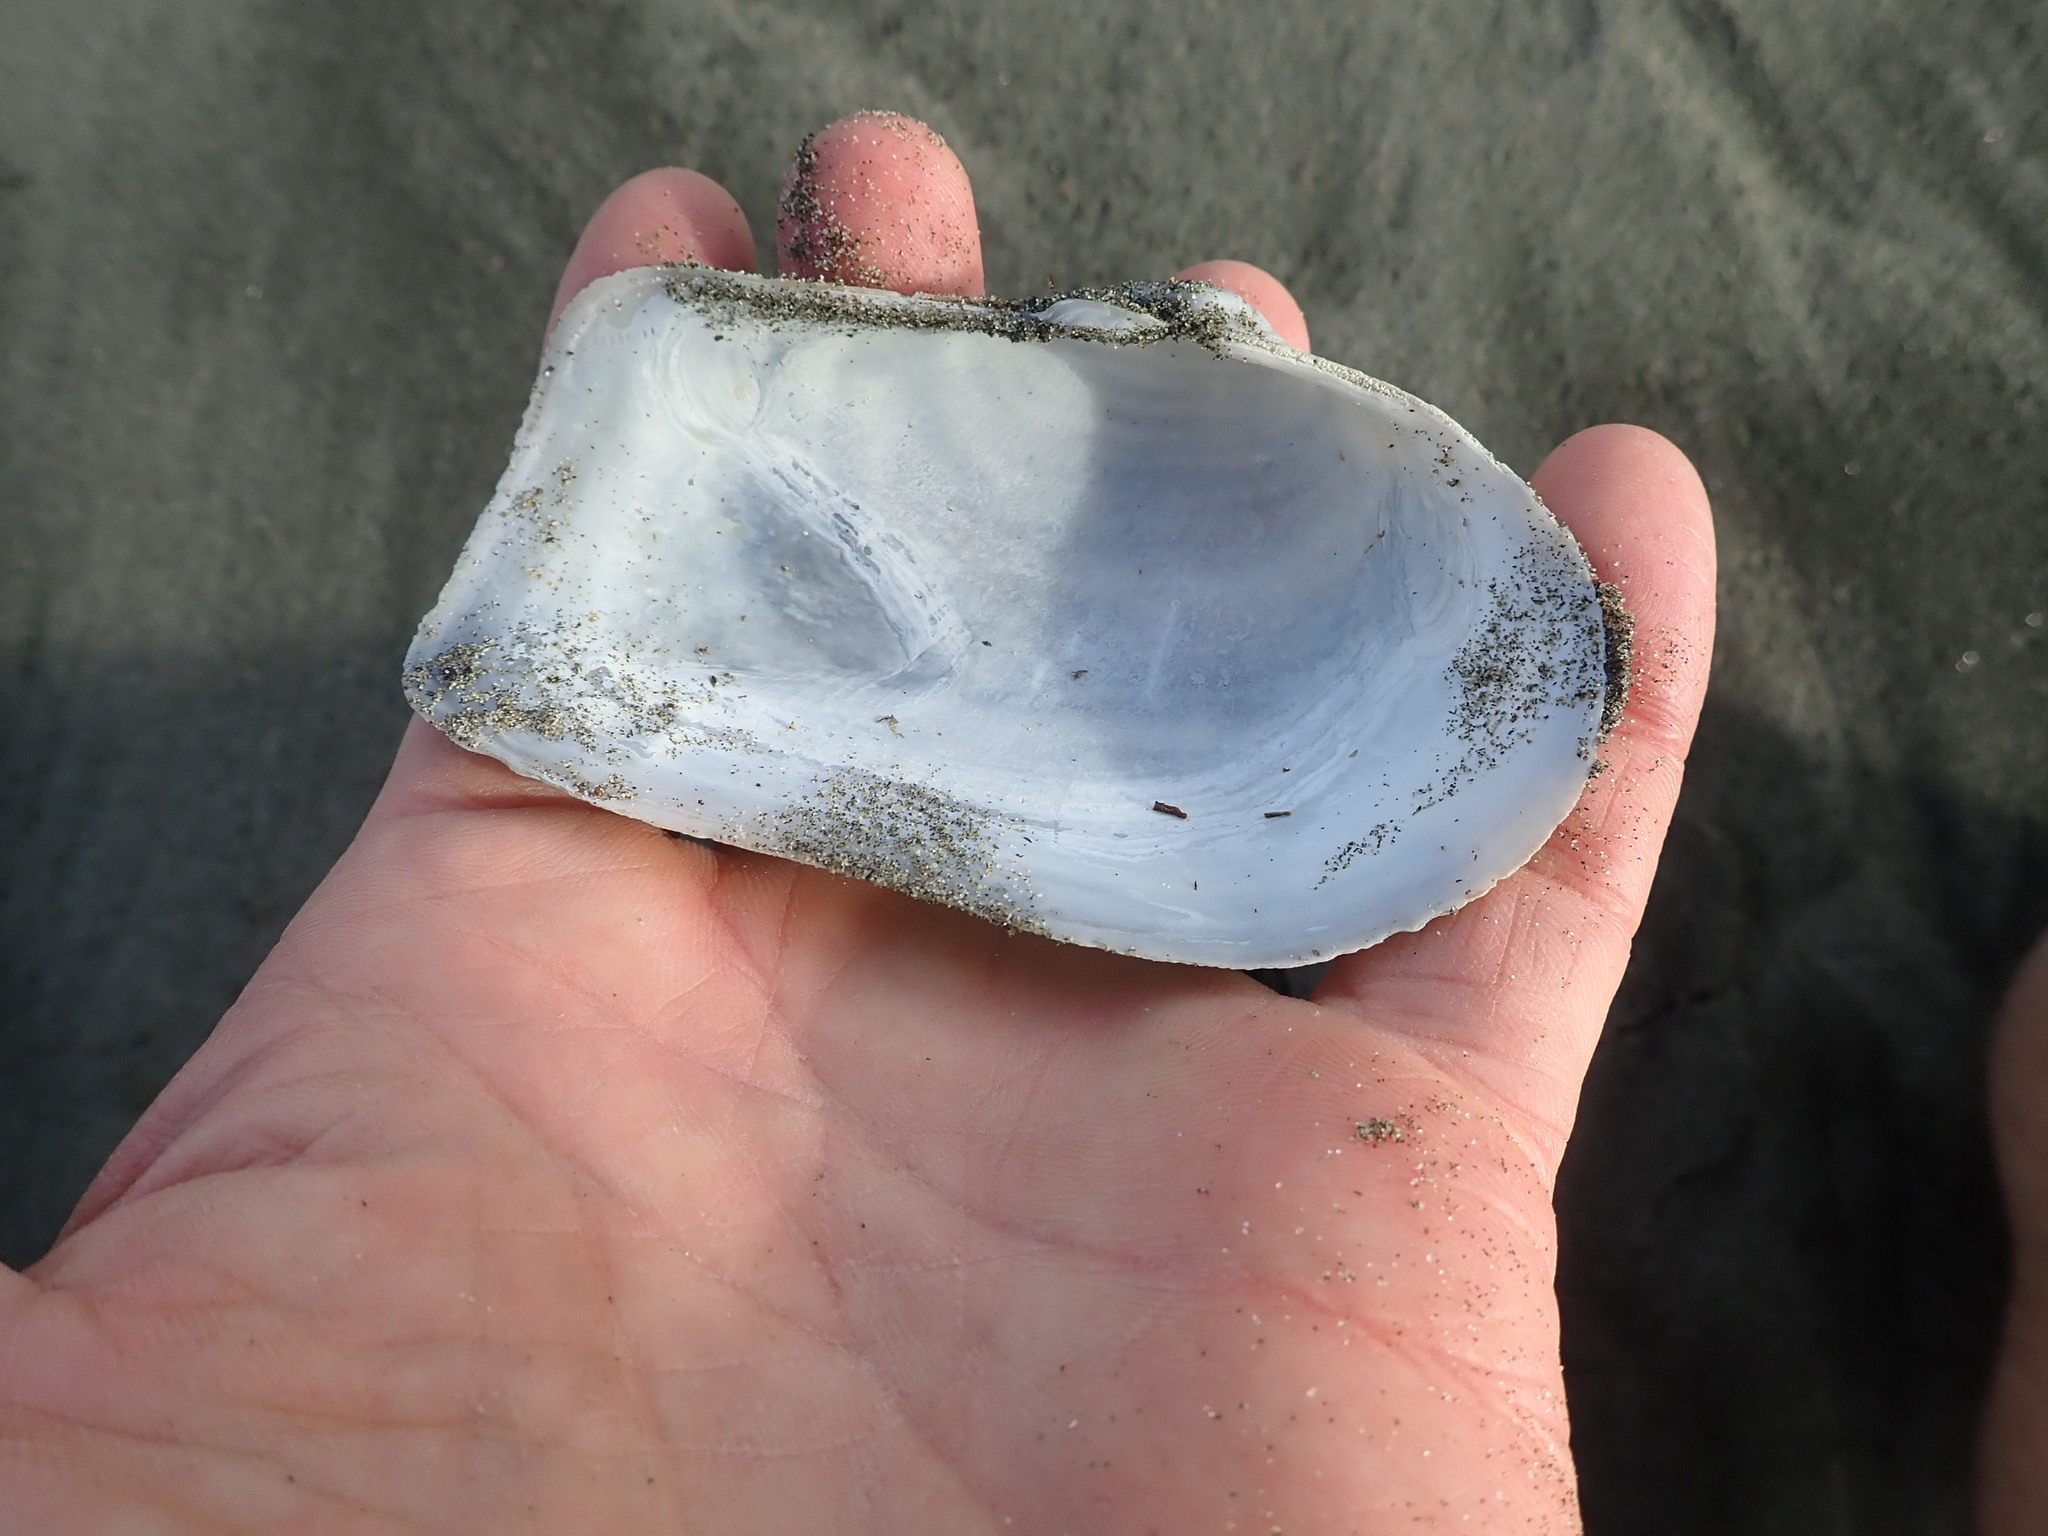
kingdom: Animalia
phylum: Mollusca
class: Bivalvia
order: Adapedonta
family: Hiatellidae
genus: Panopea
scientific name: Panopea zelandica
